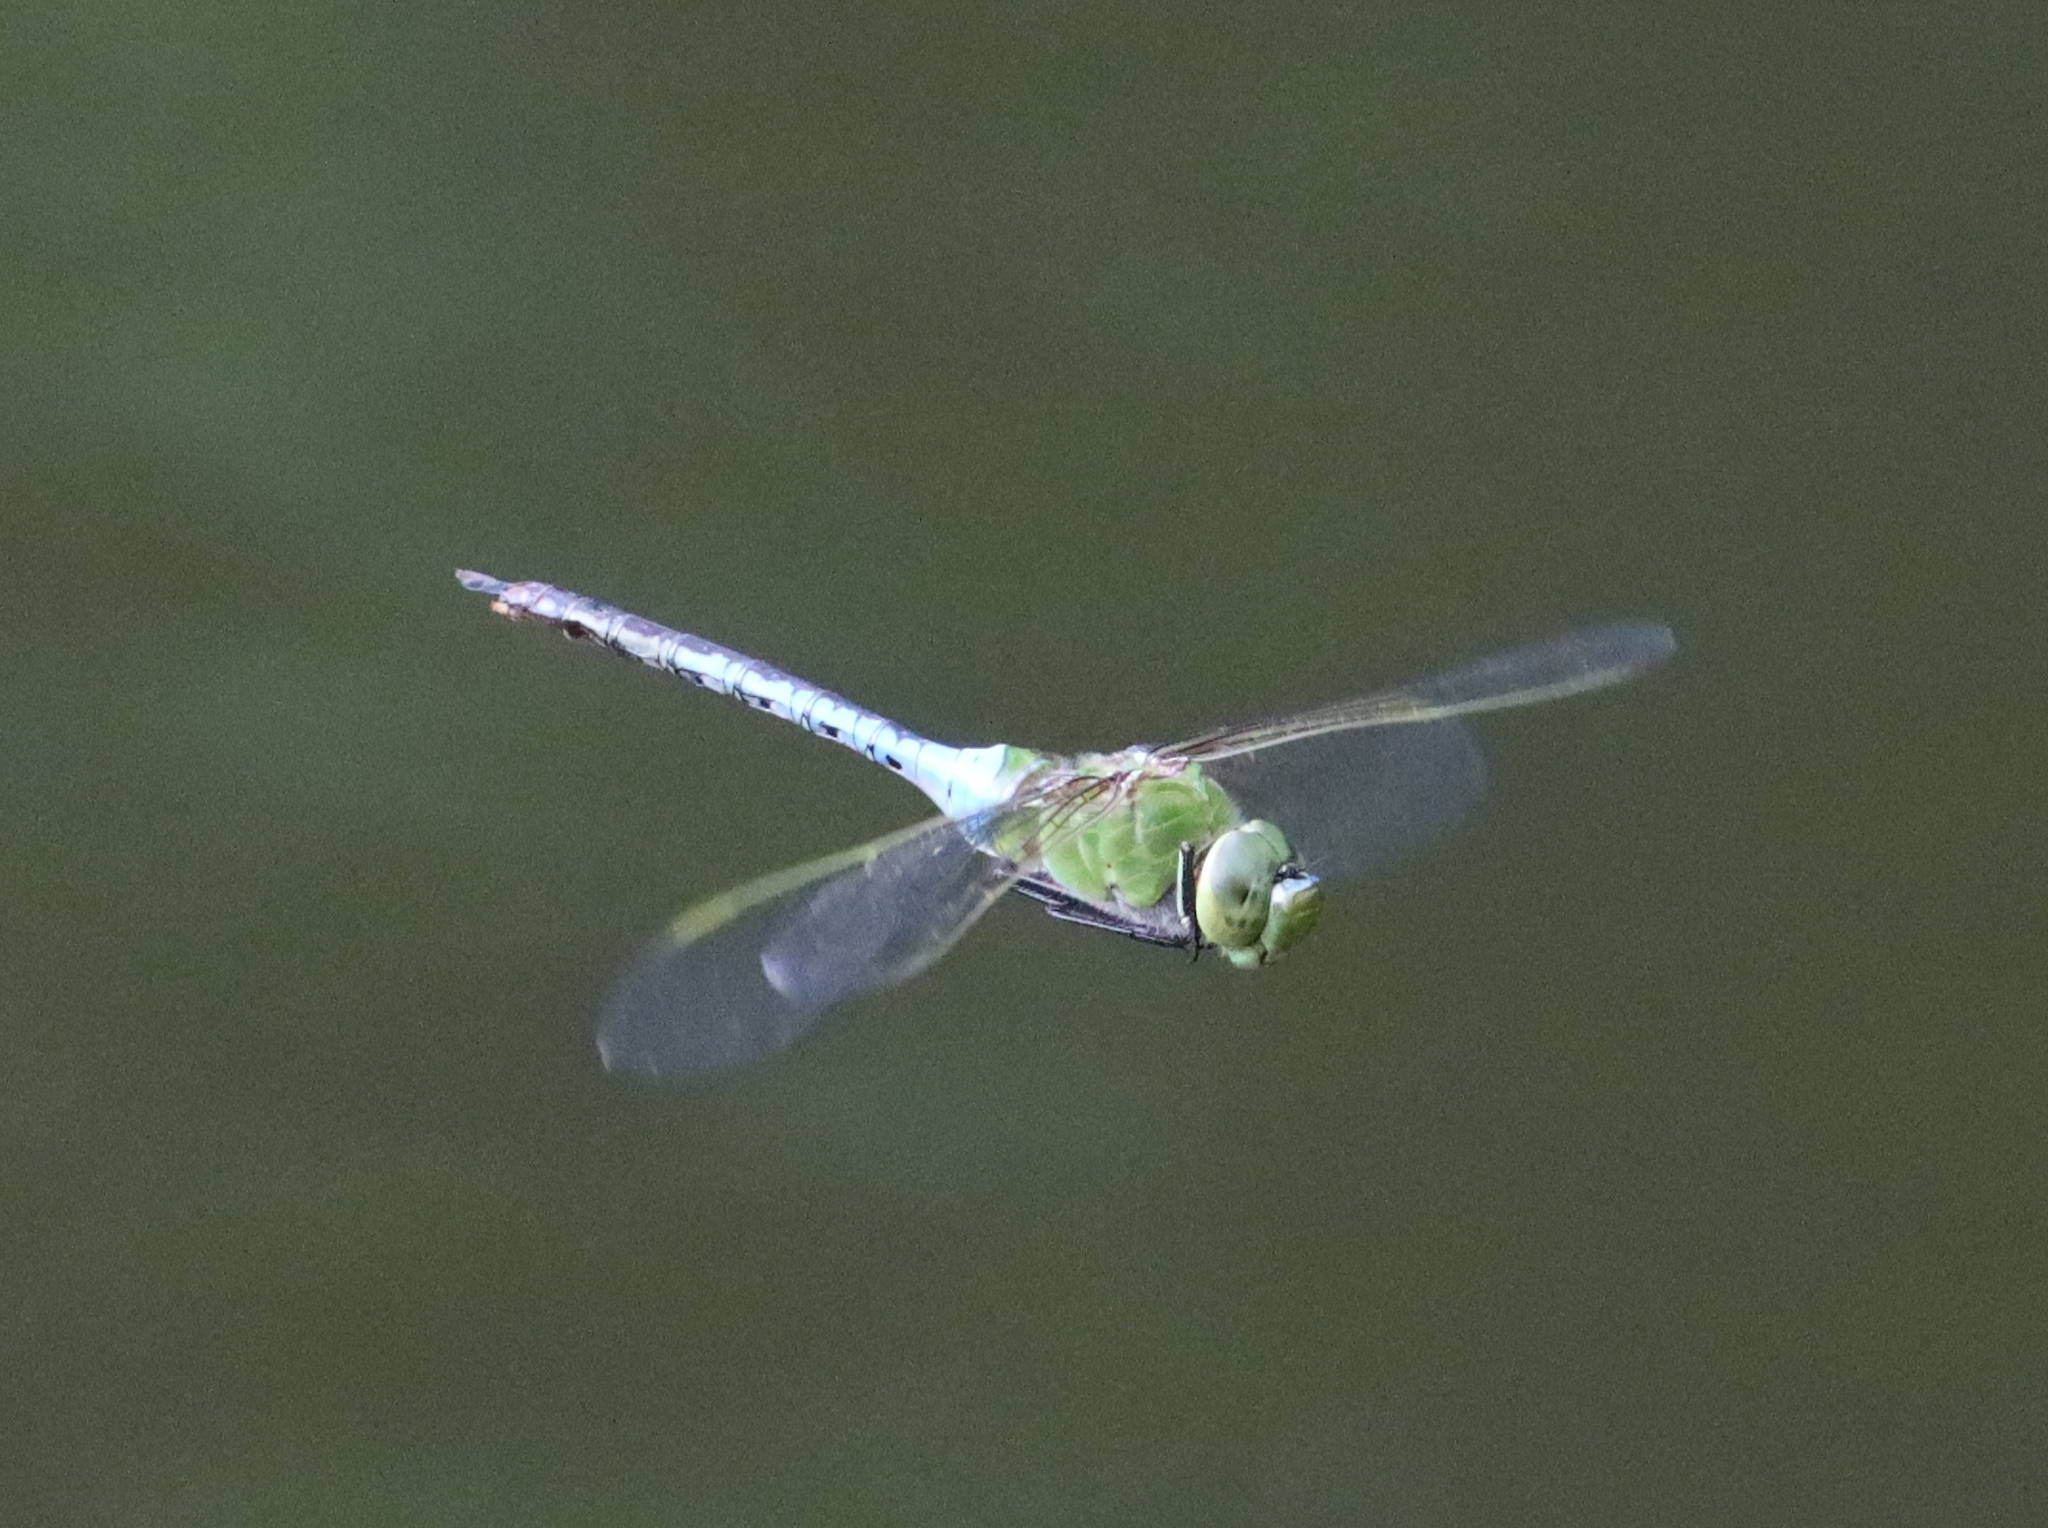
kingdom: Animalia
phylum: Arthropoda
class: Insecta
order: Odonata
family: Aeshnidae
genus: Anax
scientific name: Anax junius
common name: Common green darner
